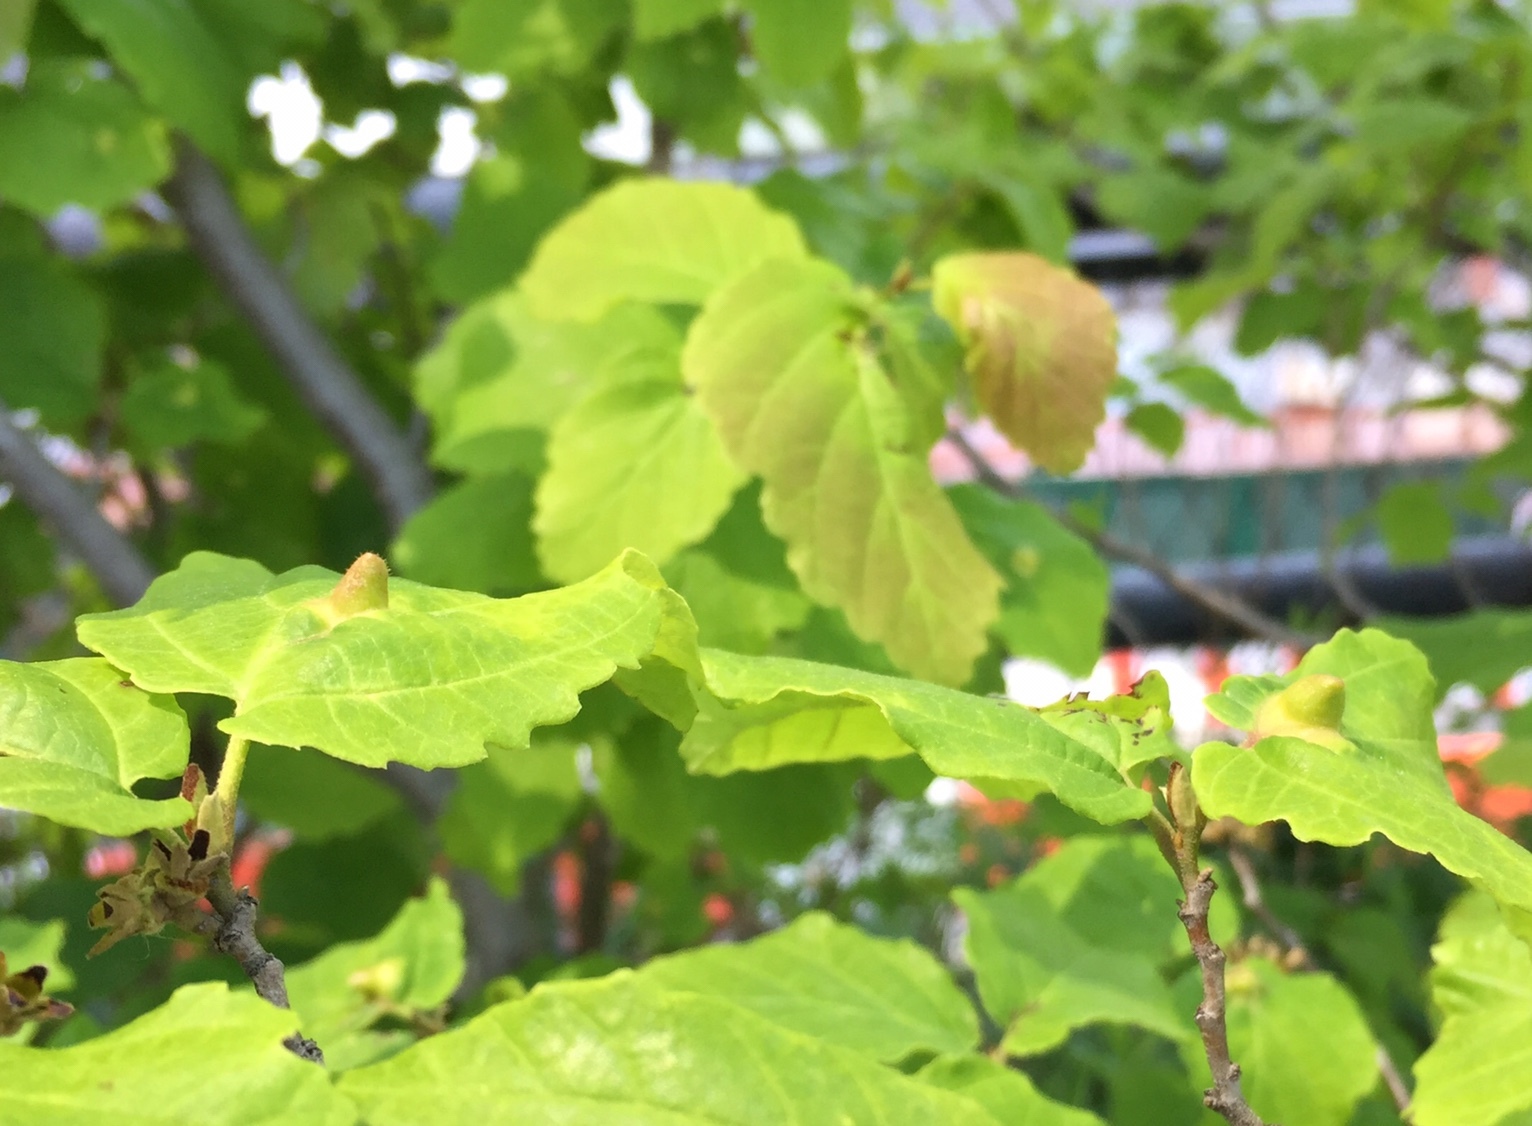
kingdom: Animalia
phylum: Arthropoda
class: Insecta
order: Hemiptera
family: Aphididae
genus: Hormaphis
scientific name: Hormaphis hamamelidis
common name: Witch-hazel cone gall aphid
